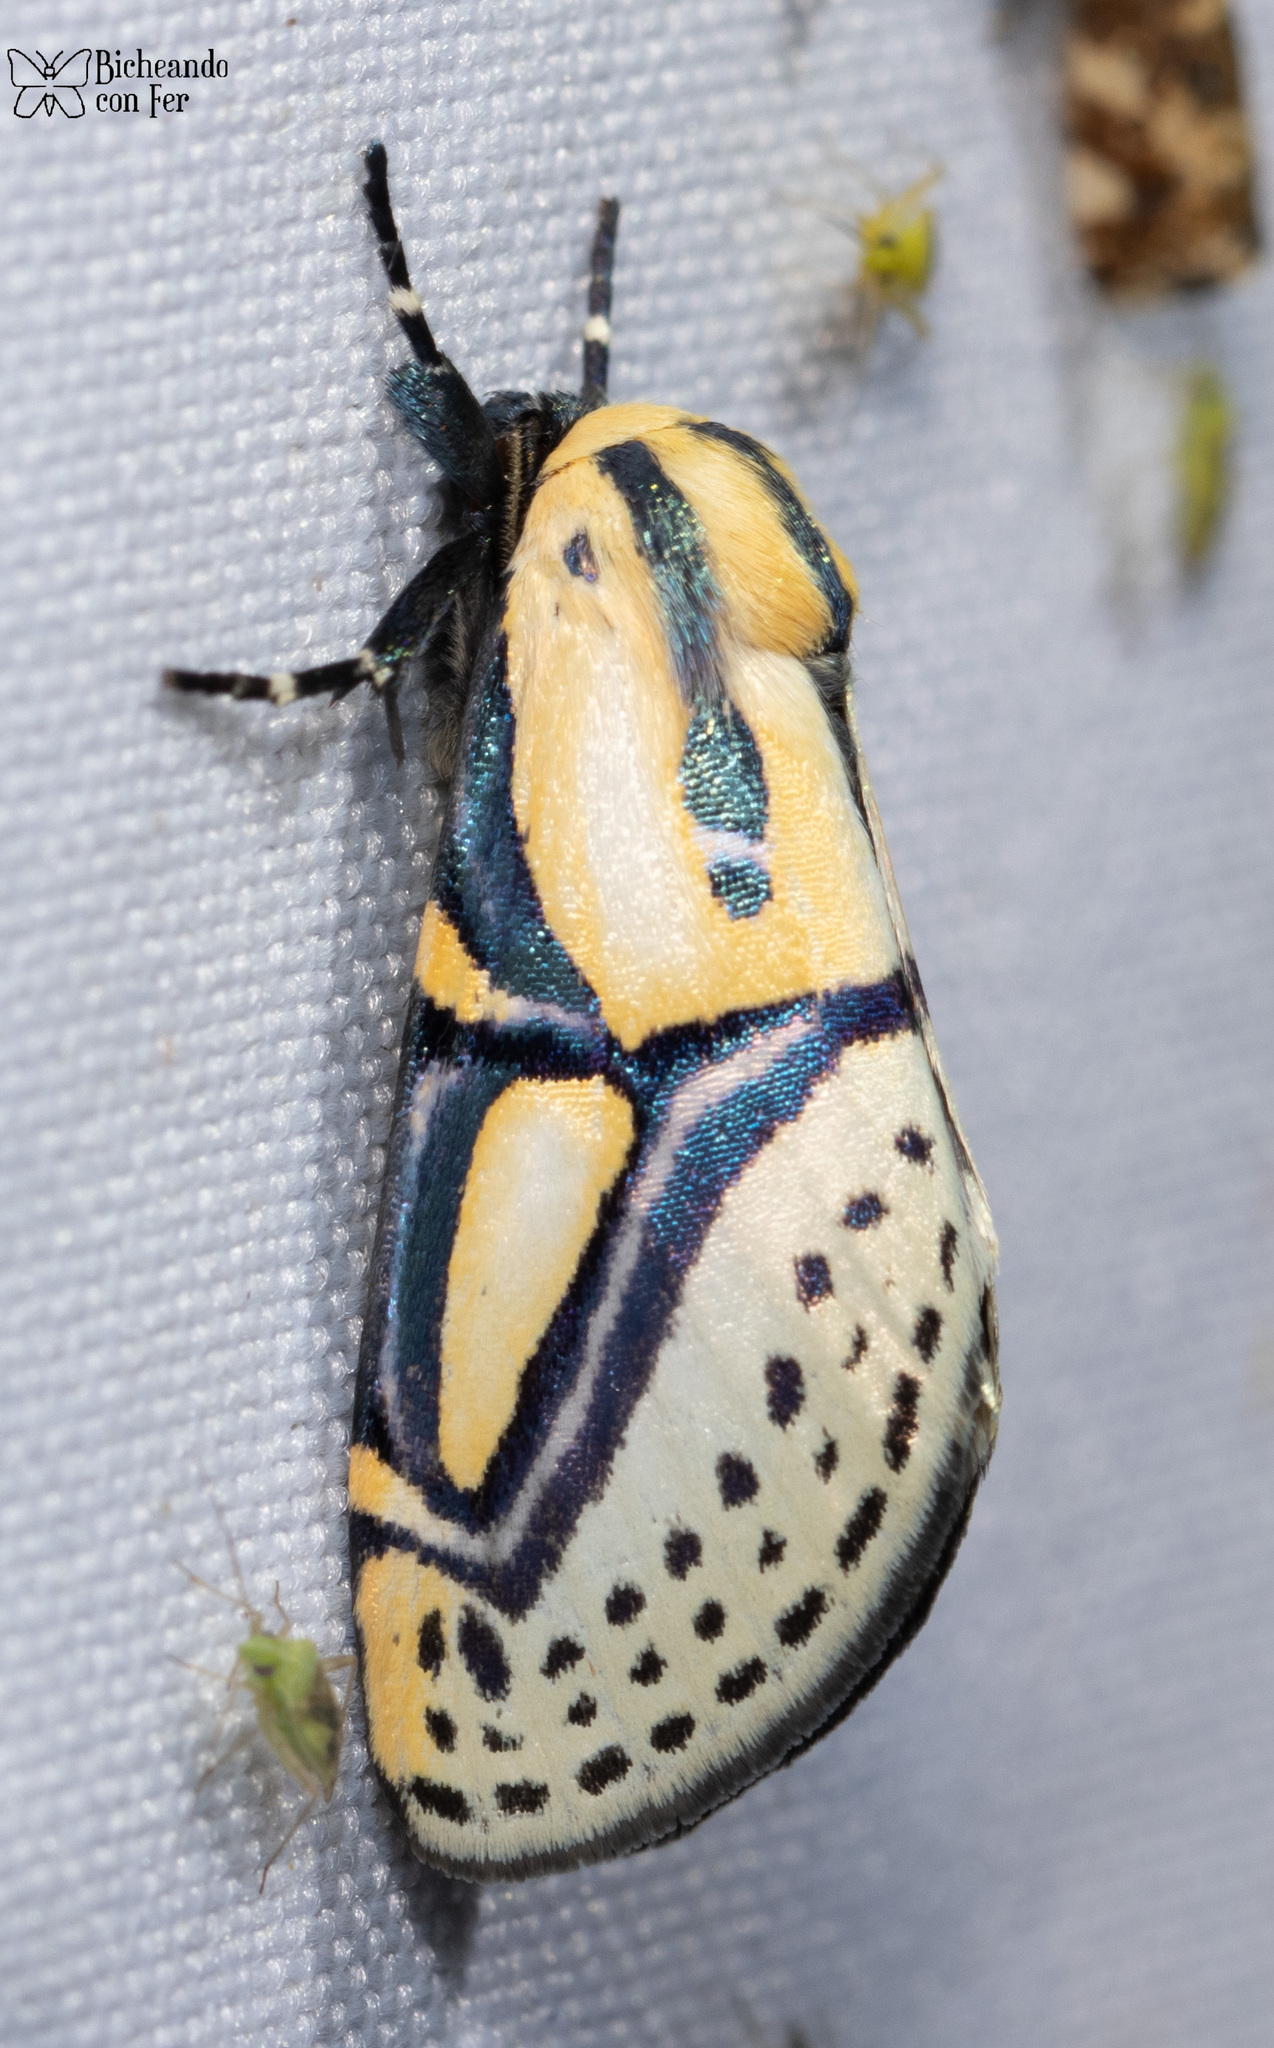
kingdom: Animalia
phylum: Arthropoda
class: Insecta
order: Lepidoptera
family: Erebidae
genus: Diphthera
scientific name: Diphthera festiva
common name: Hieroglyphic moth
